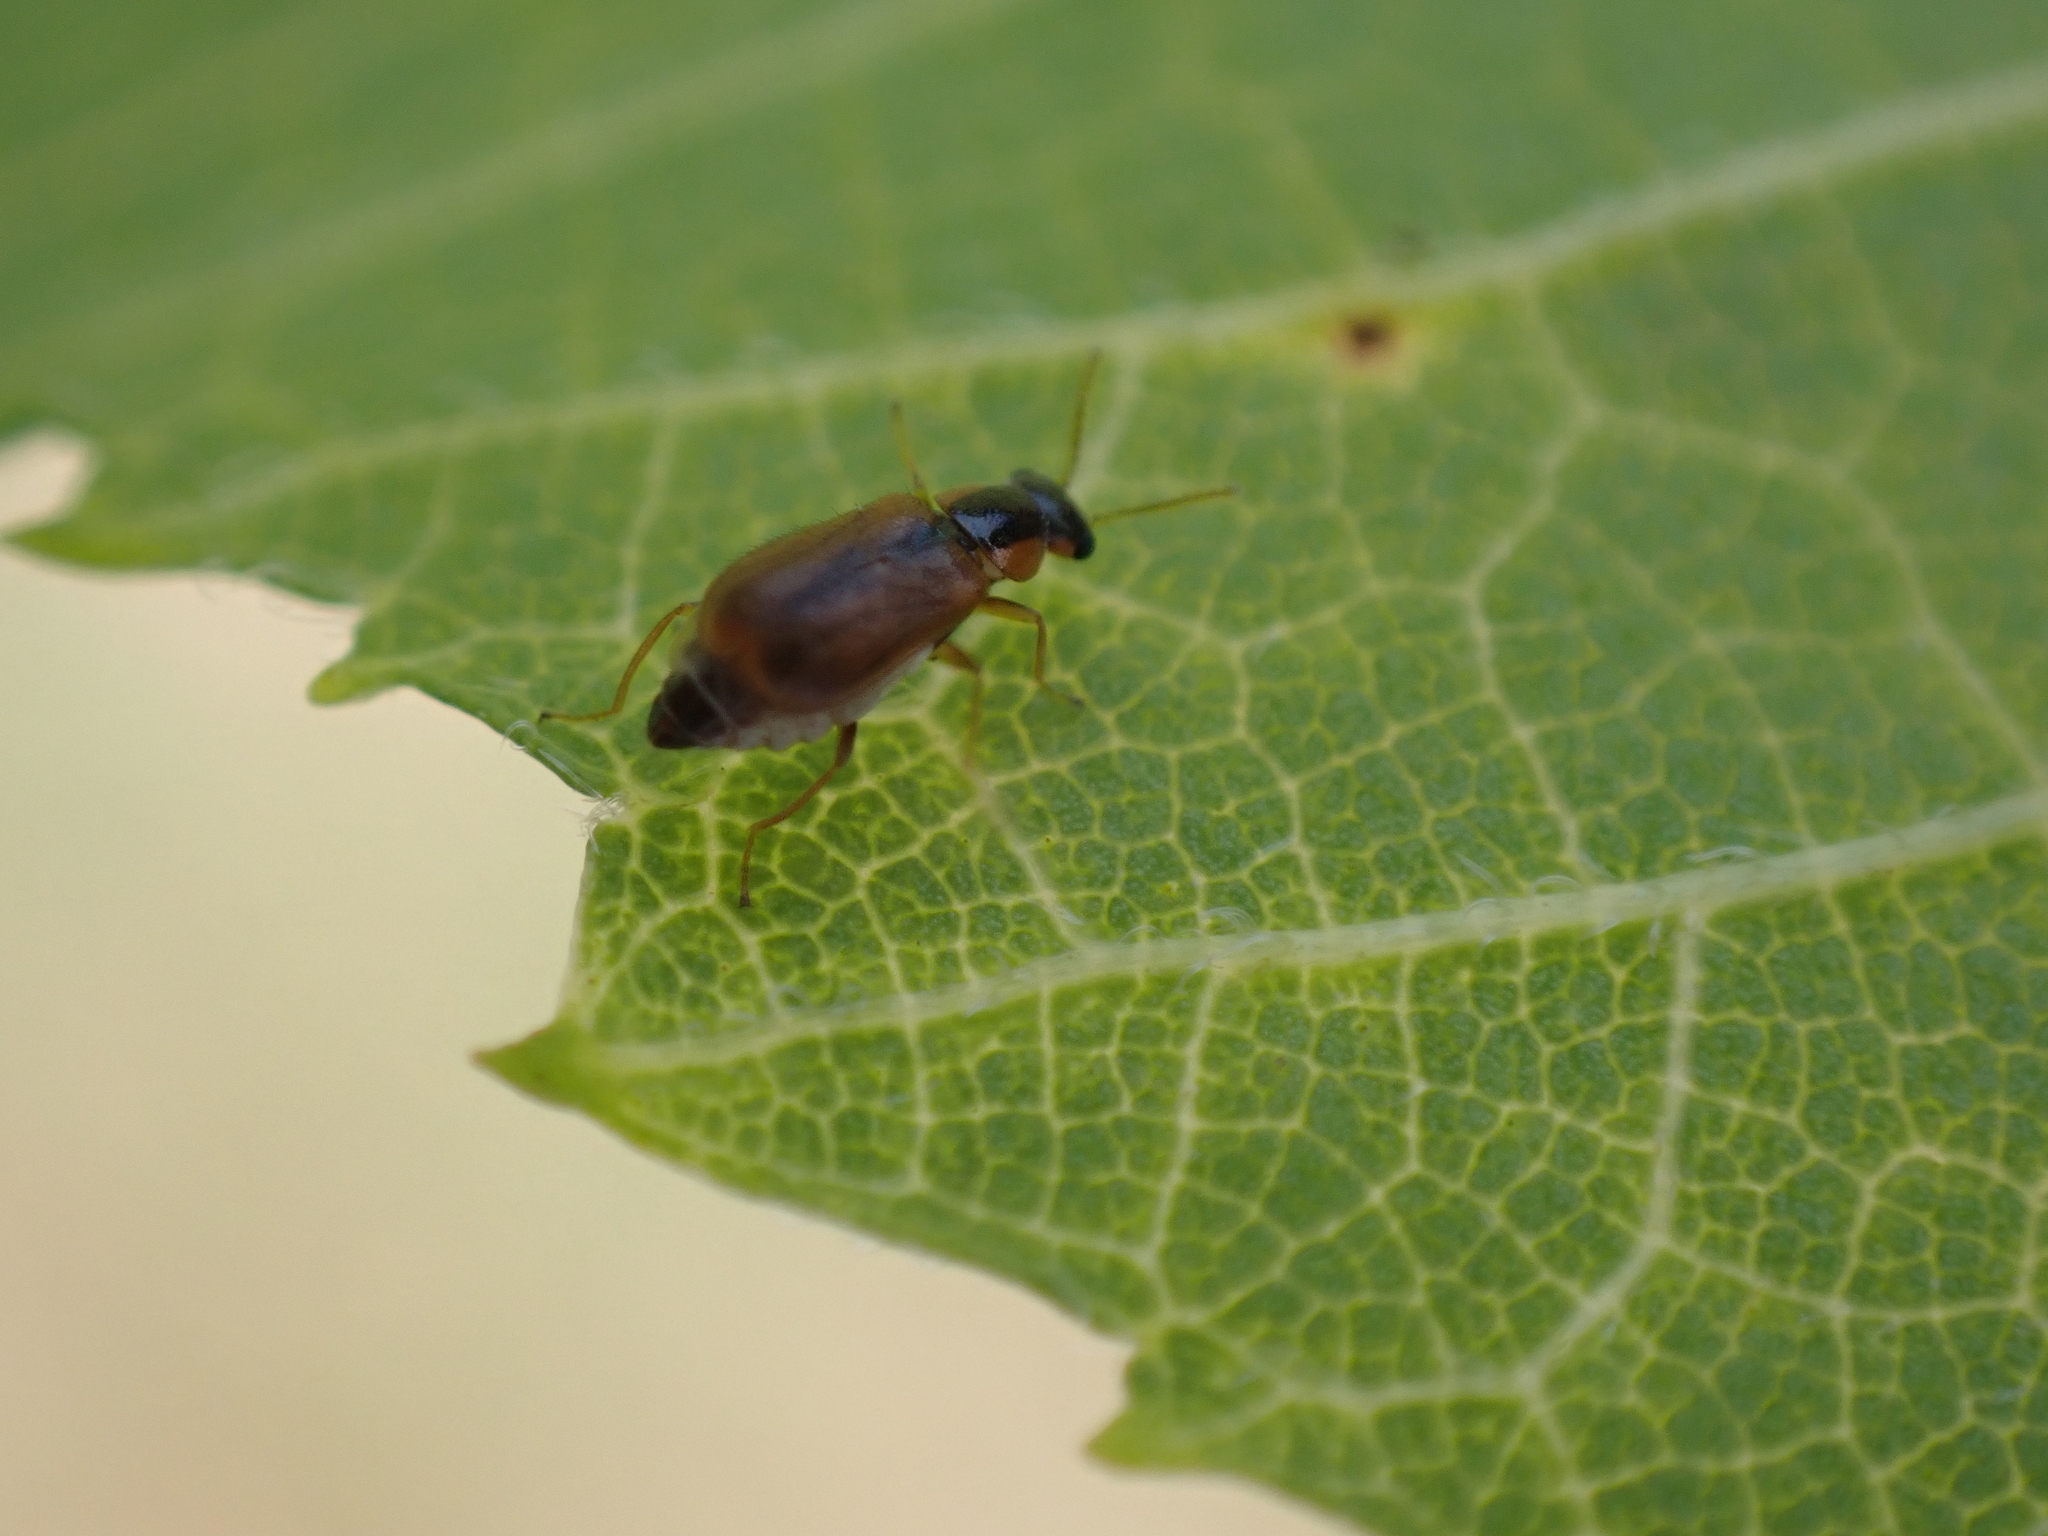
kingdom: Animalia
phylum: Arthropoda
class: Insecta
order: Coleoptera
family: Malachiidae
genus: Attalus
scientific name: Attalus
